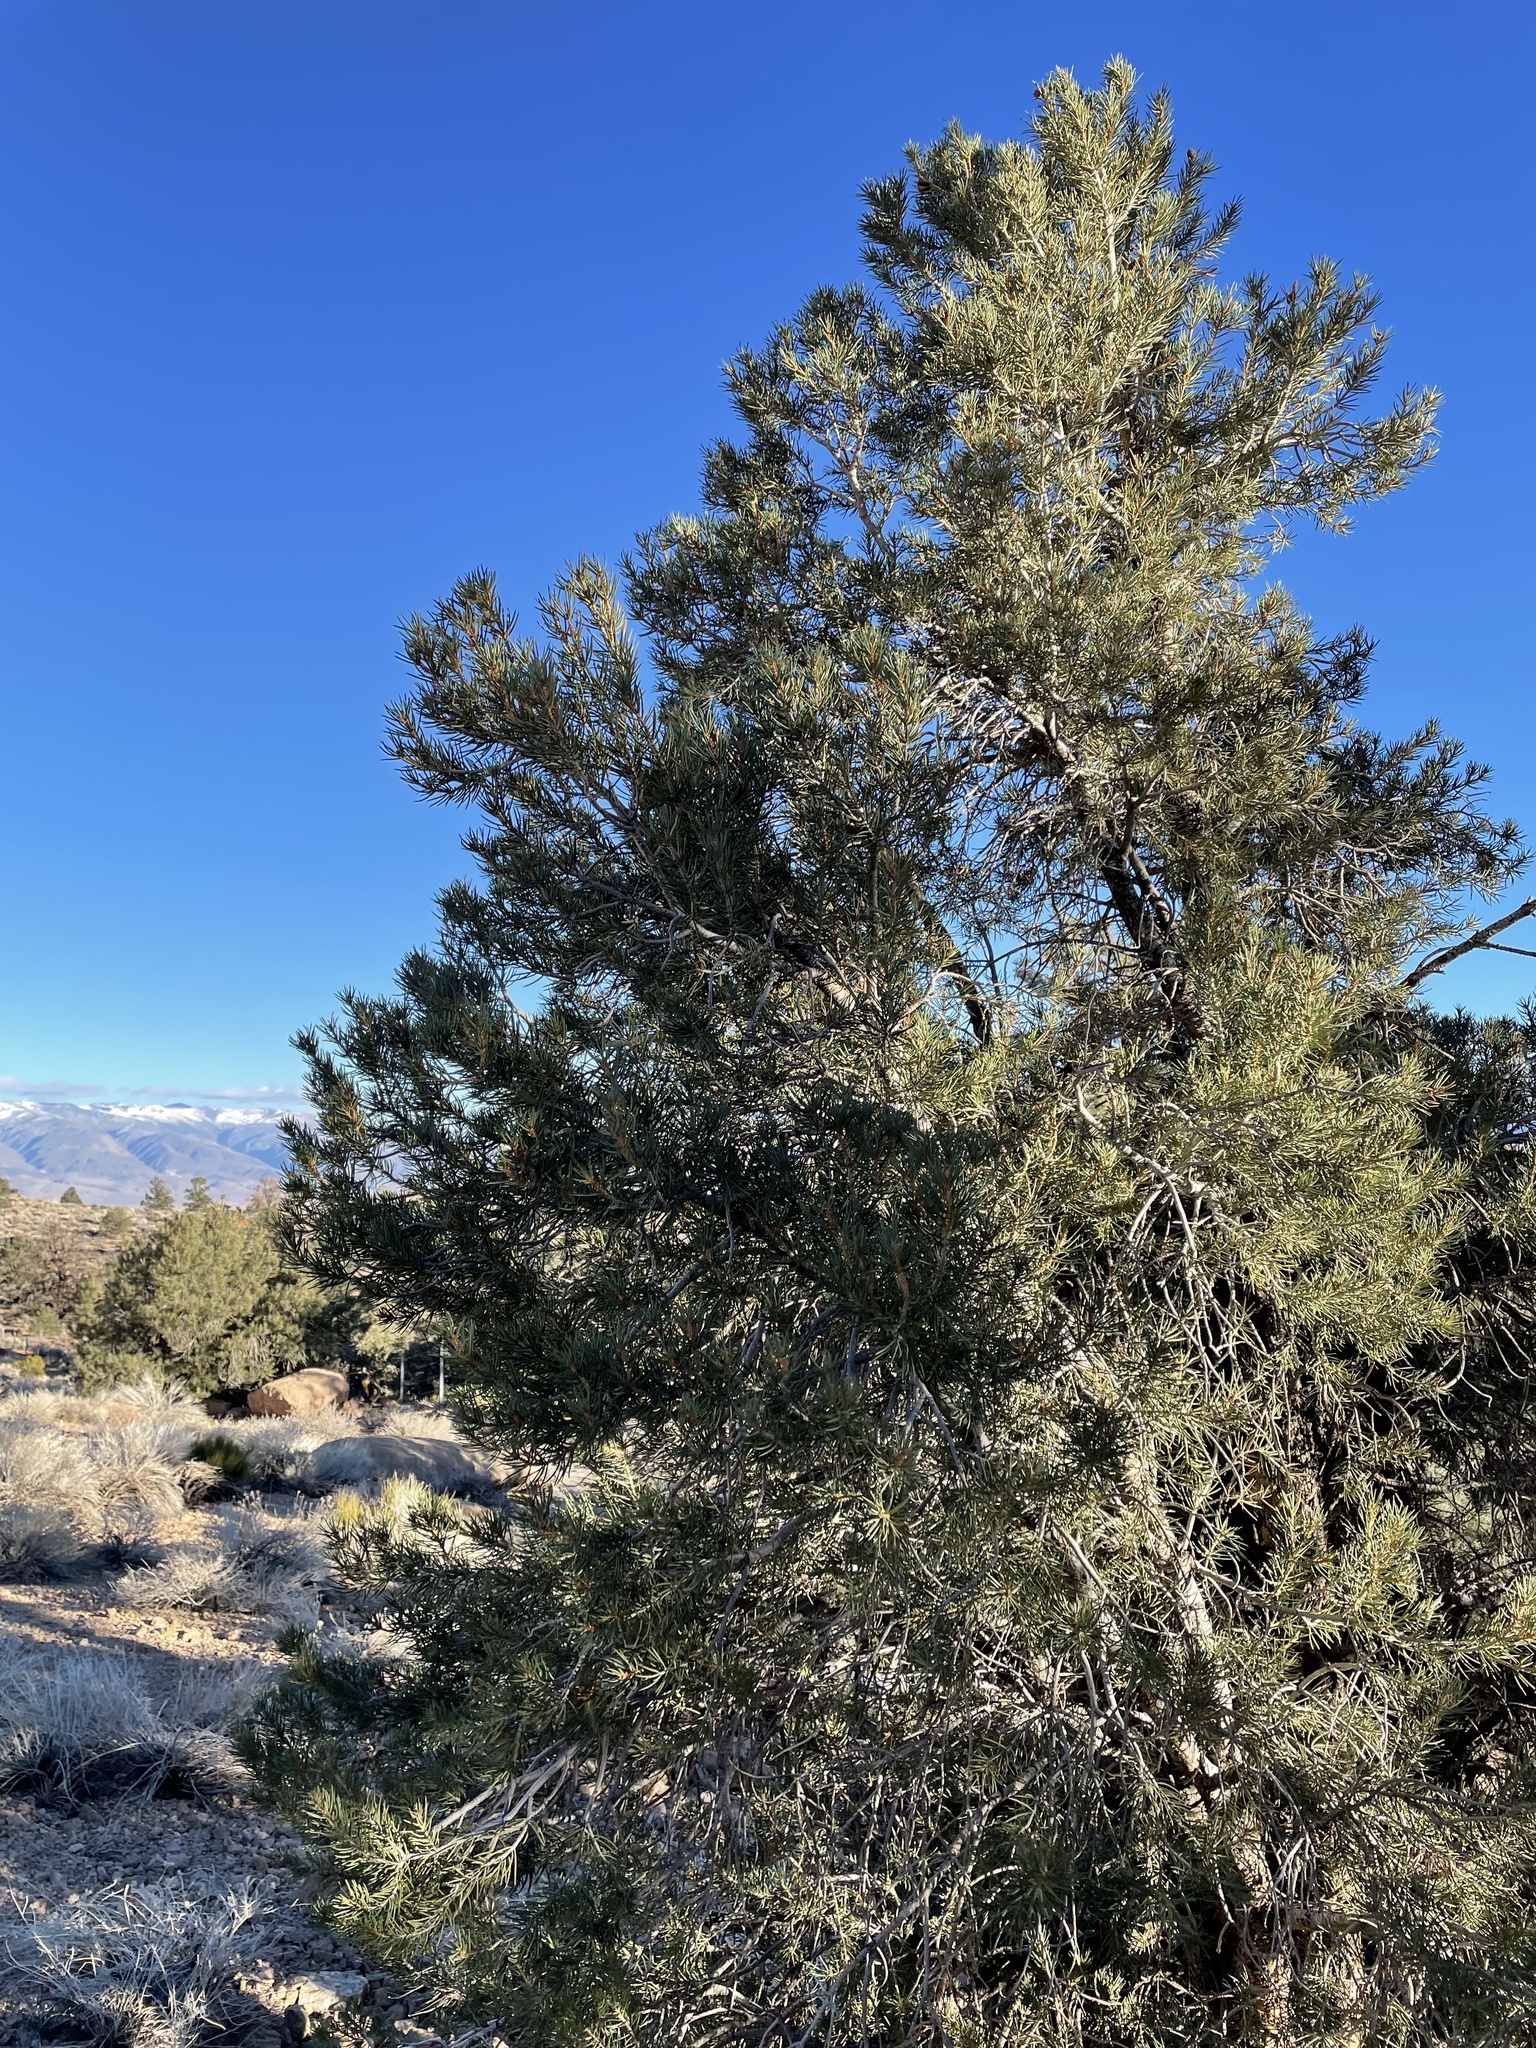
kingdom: Plantae
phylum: Tracheophyta
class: Pinopsida
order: Pinales
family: Pinaceae
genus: Pinus
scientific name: Pinus monophylla
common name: One-leaved nut pine
